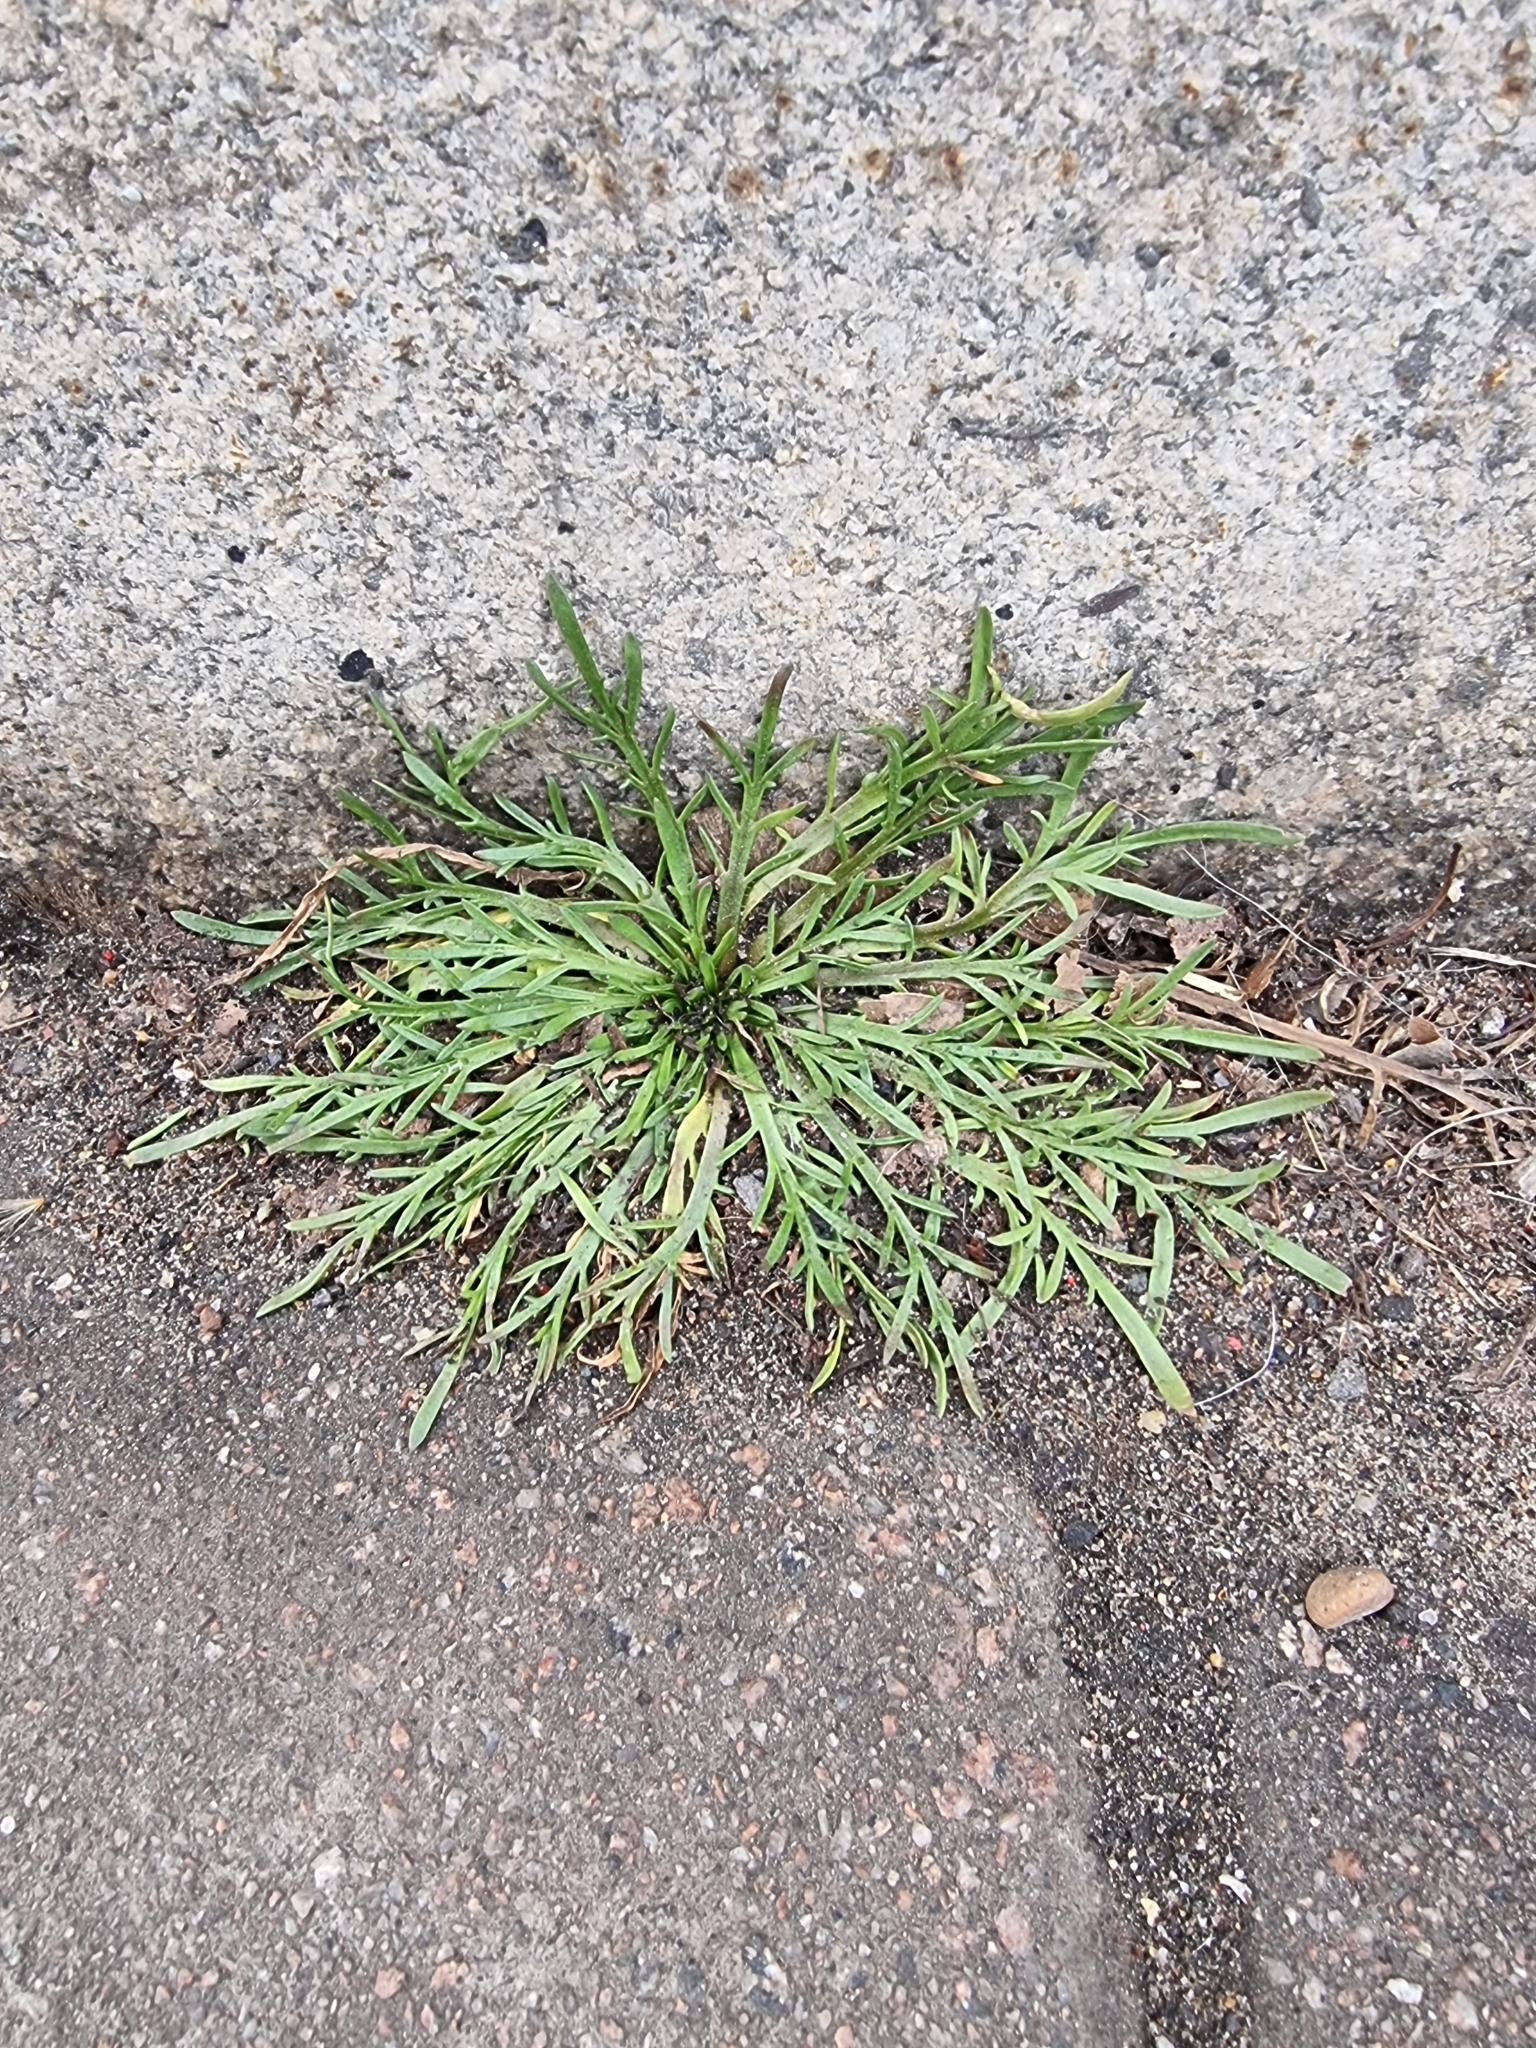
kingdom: Plantae
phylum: Tracheophyta
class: Magnoliopsida
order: Lamiales
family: Plantaginaceae
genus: Plantago
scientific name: Plantago coronopus
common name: Buck's-horn plantain
